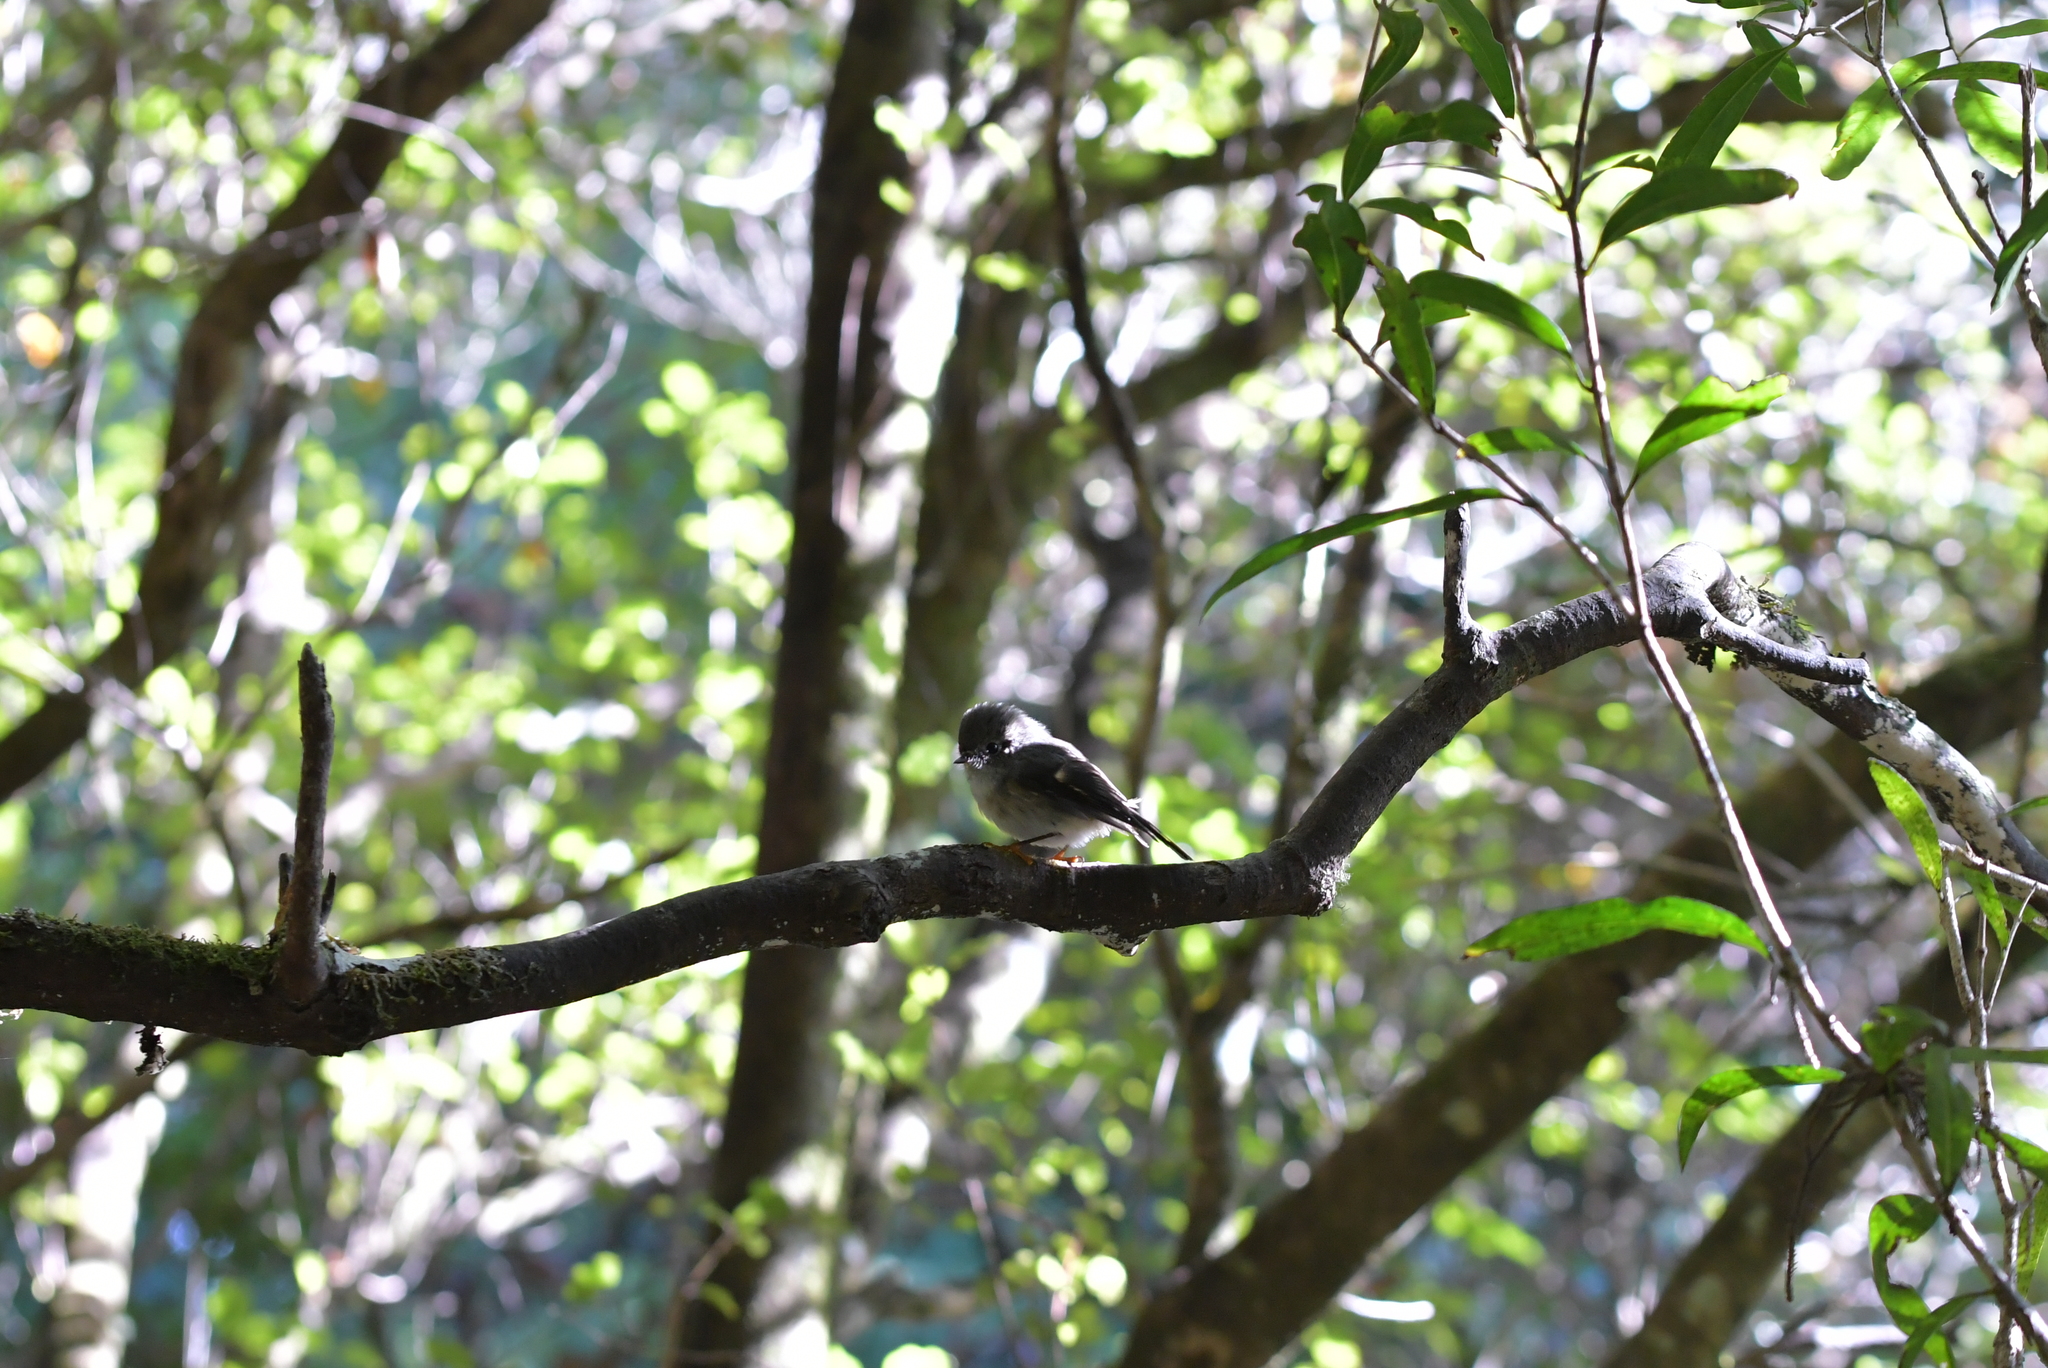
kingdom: Animalia
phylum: Chordata
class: Aves
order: Passeriformes
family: Petroicidae
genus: Petroica
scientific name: Petroica macrocephala
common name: Tomtit
